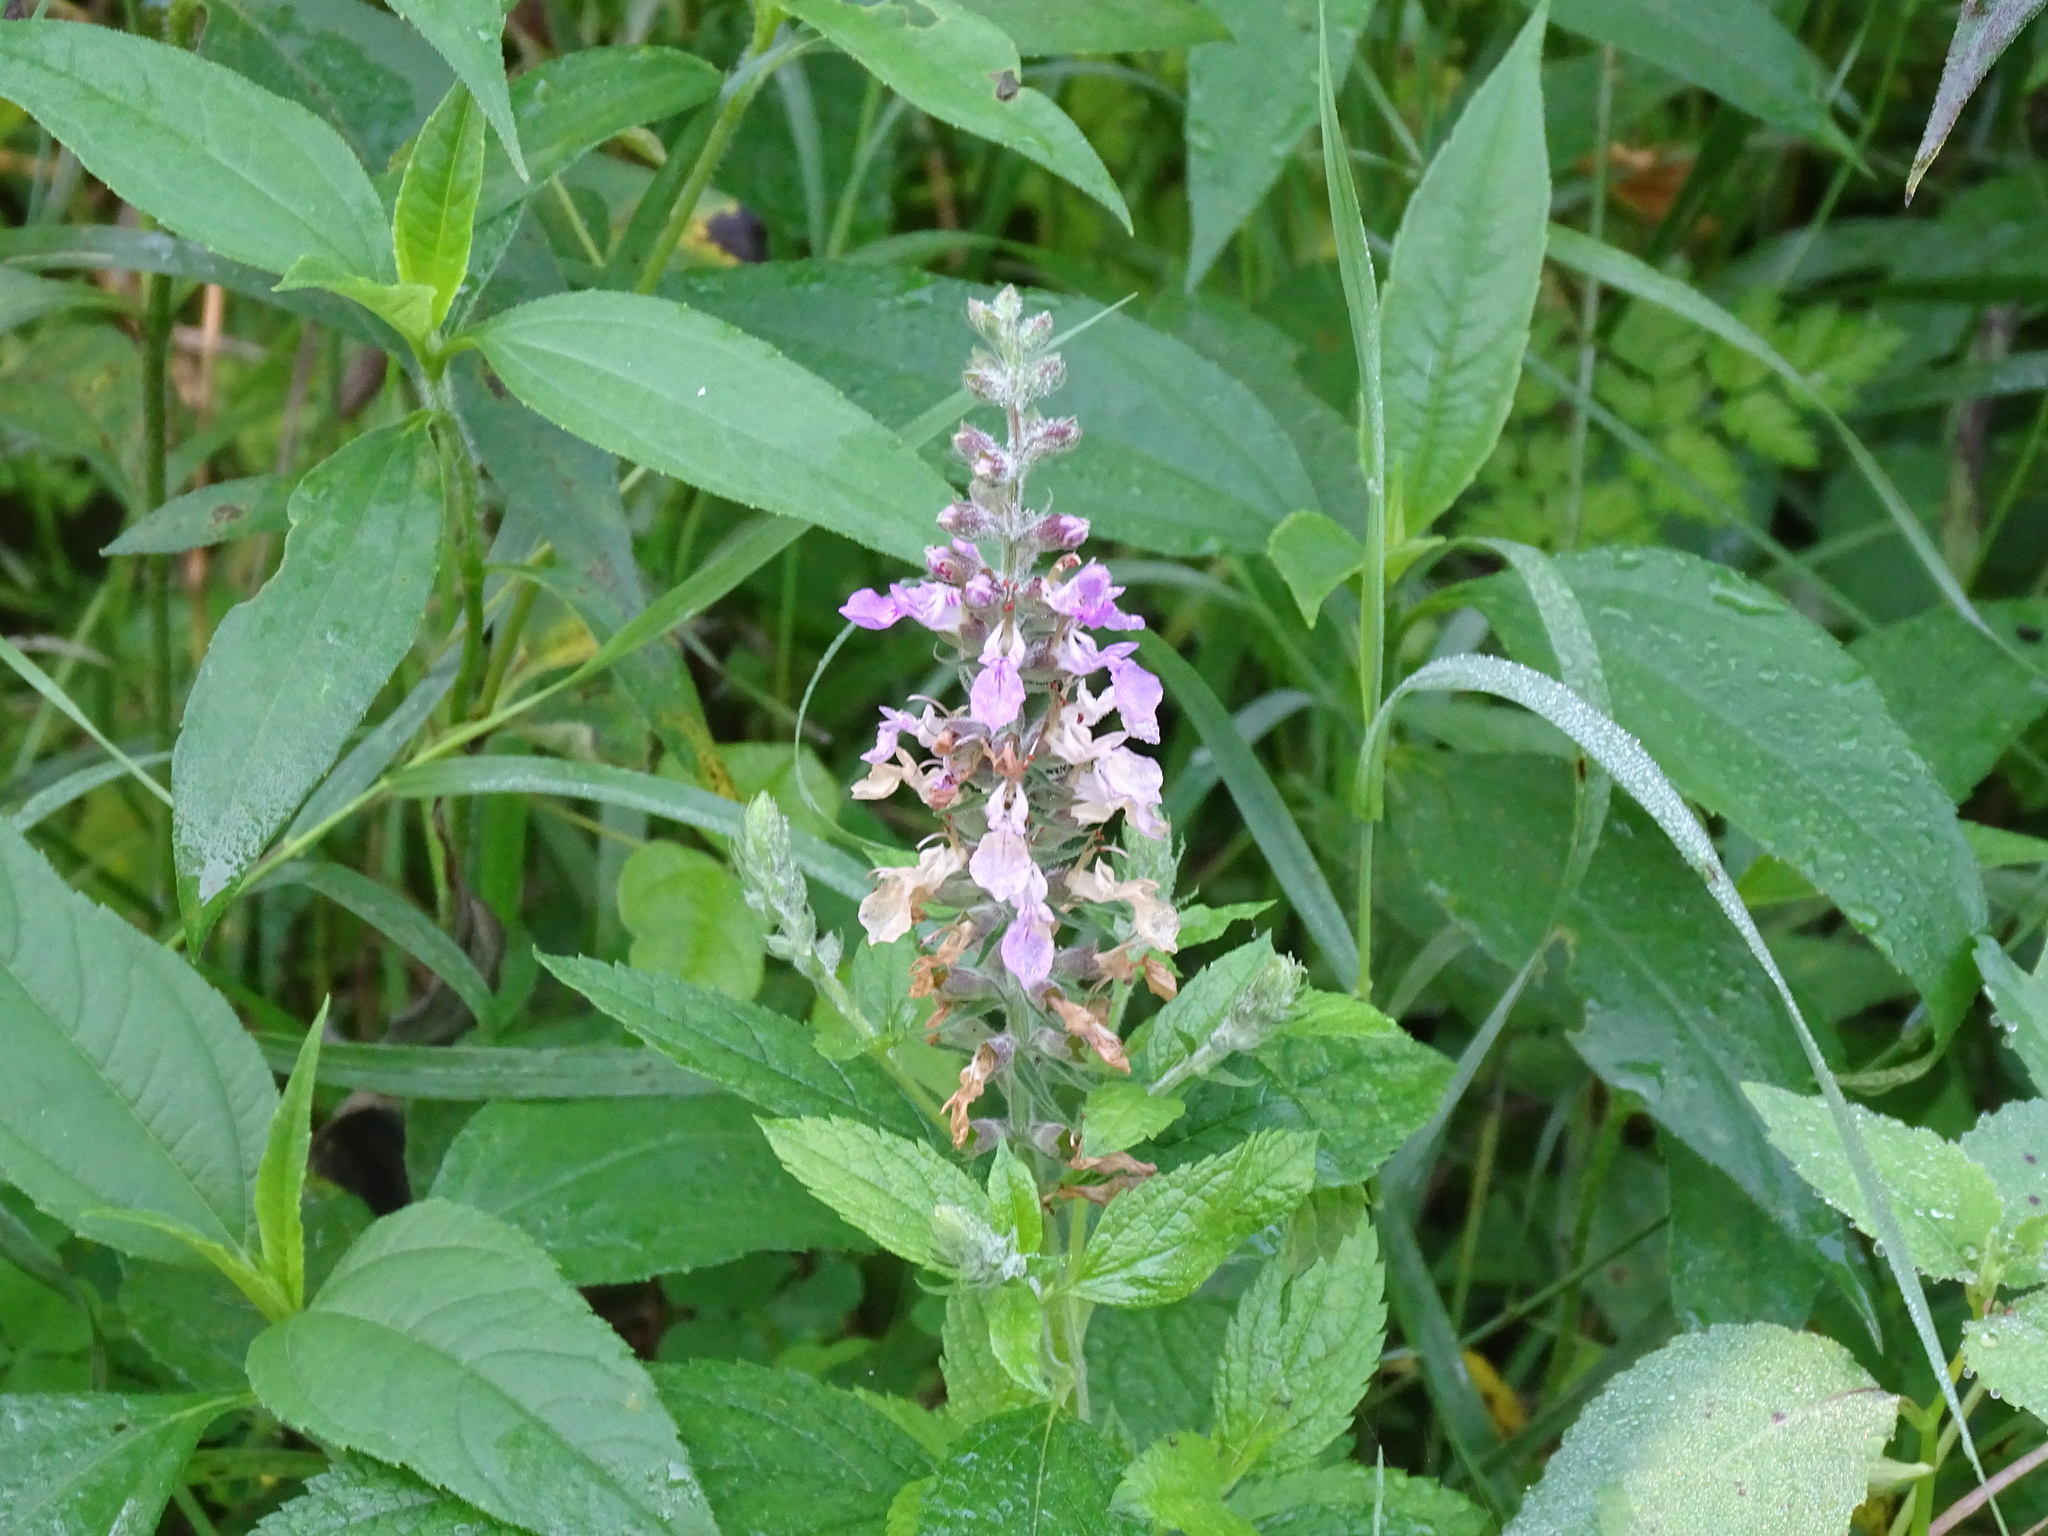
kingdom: Plantae
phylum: Tracheophyta
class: Magnoliopsida
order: Lamiales
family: Lamiaceae
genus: Teucrium
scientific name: Teucrium canadense
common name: American germander
